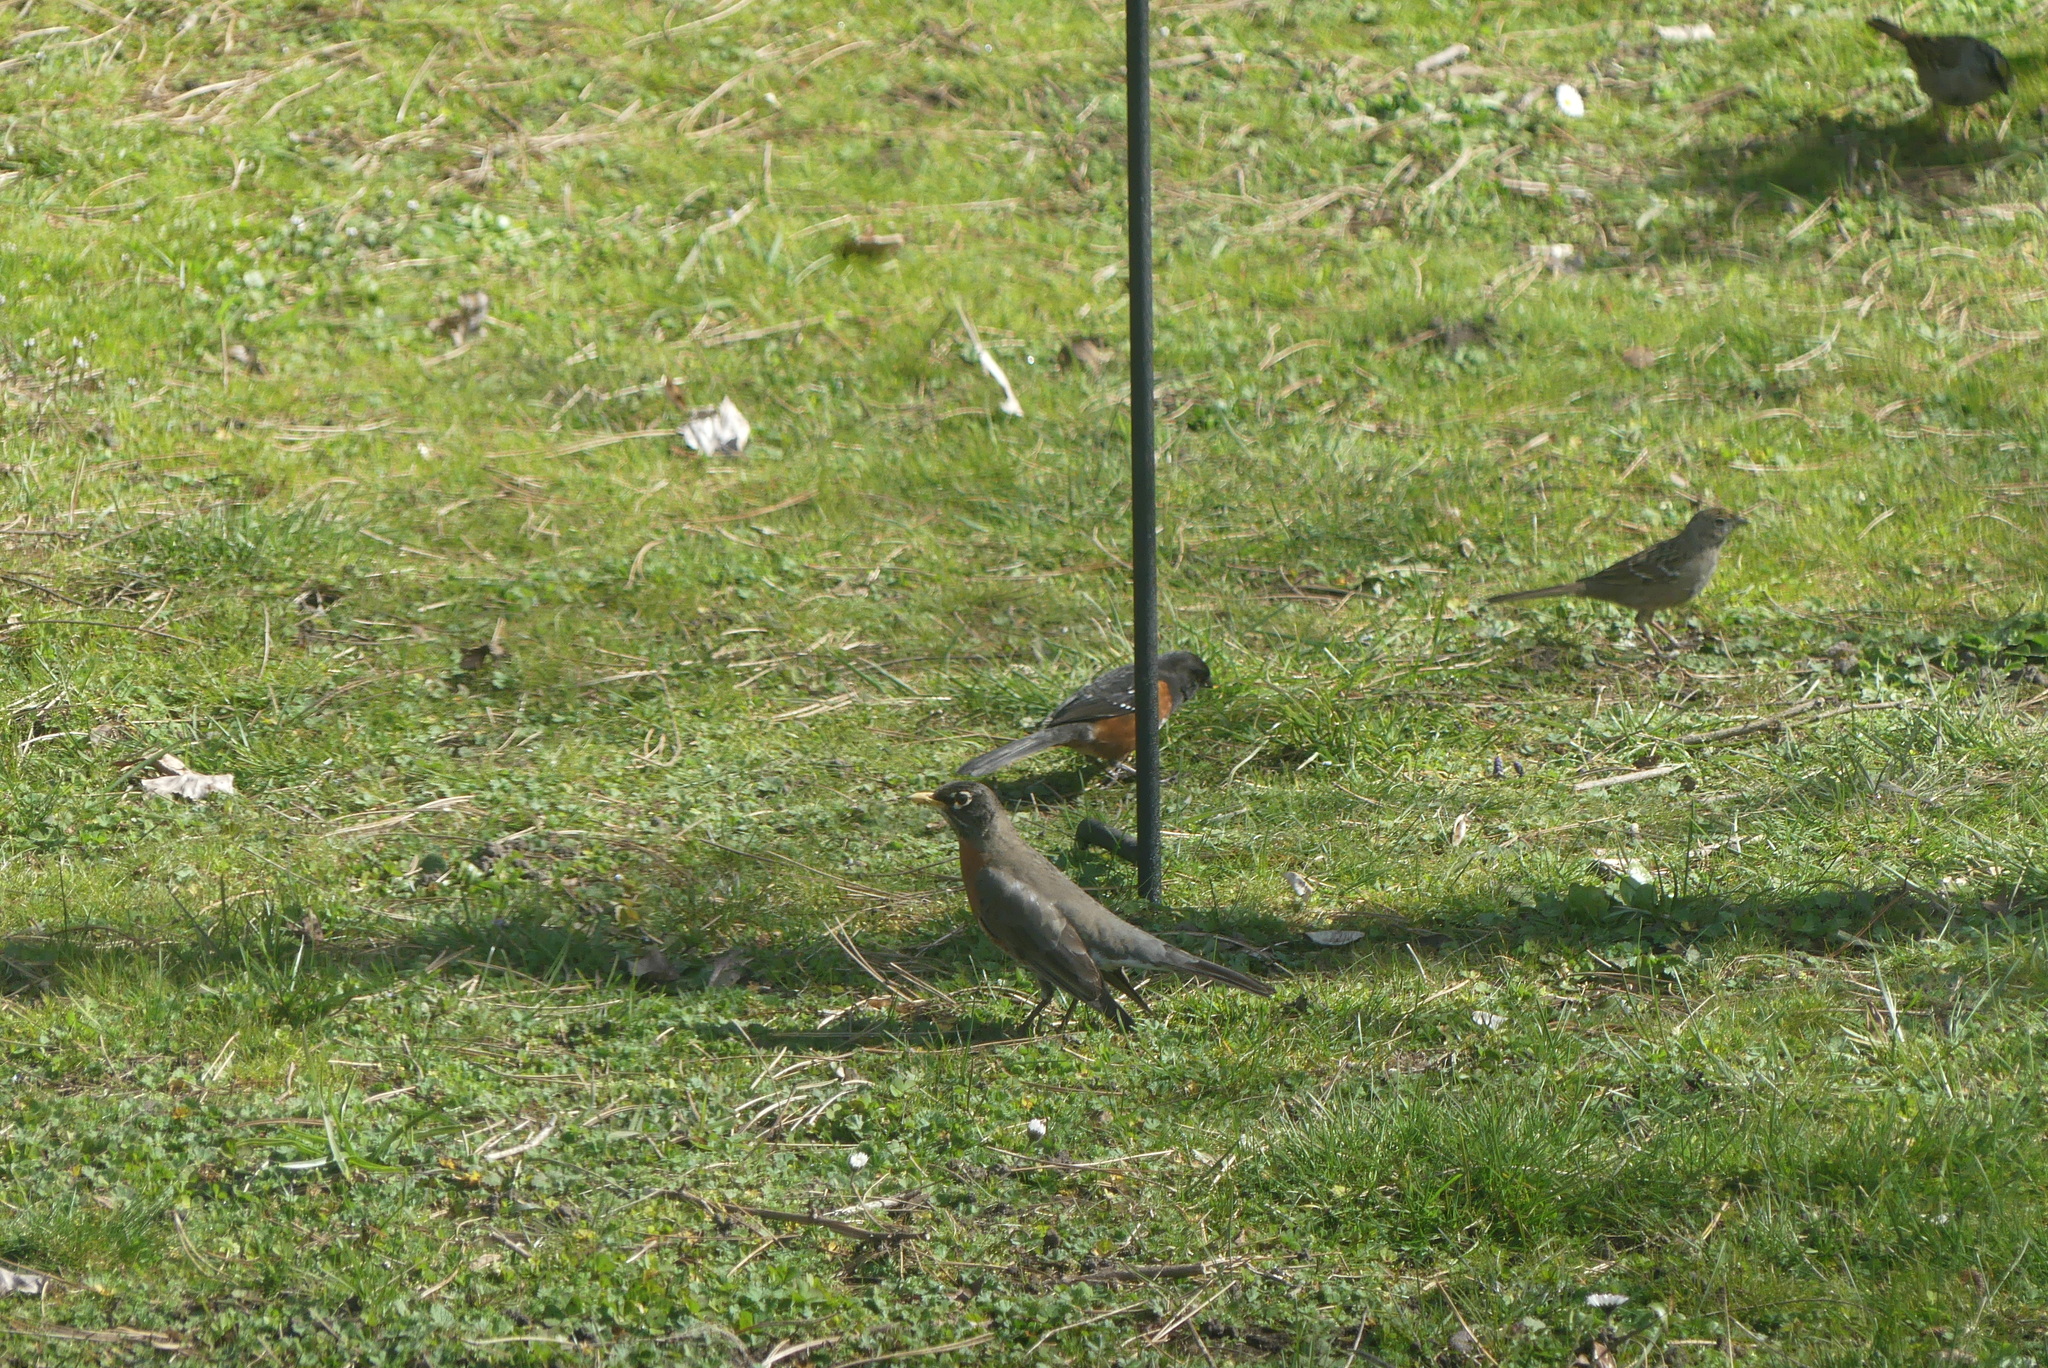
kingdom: Animalia
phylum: Chordata
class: Aves
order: Passeriformes
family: Turdidae
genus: Turdus
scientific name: Turdus migratorius
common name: American robin
